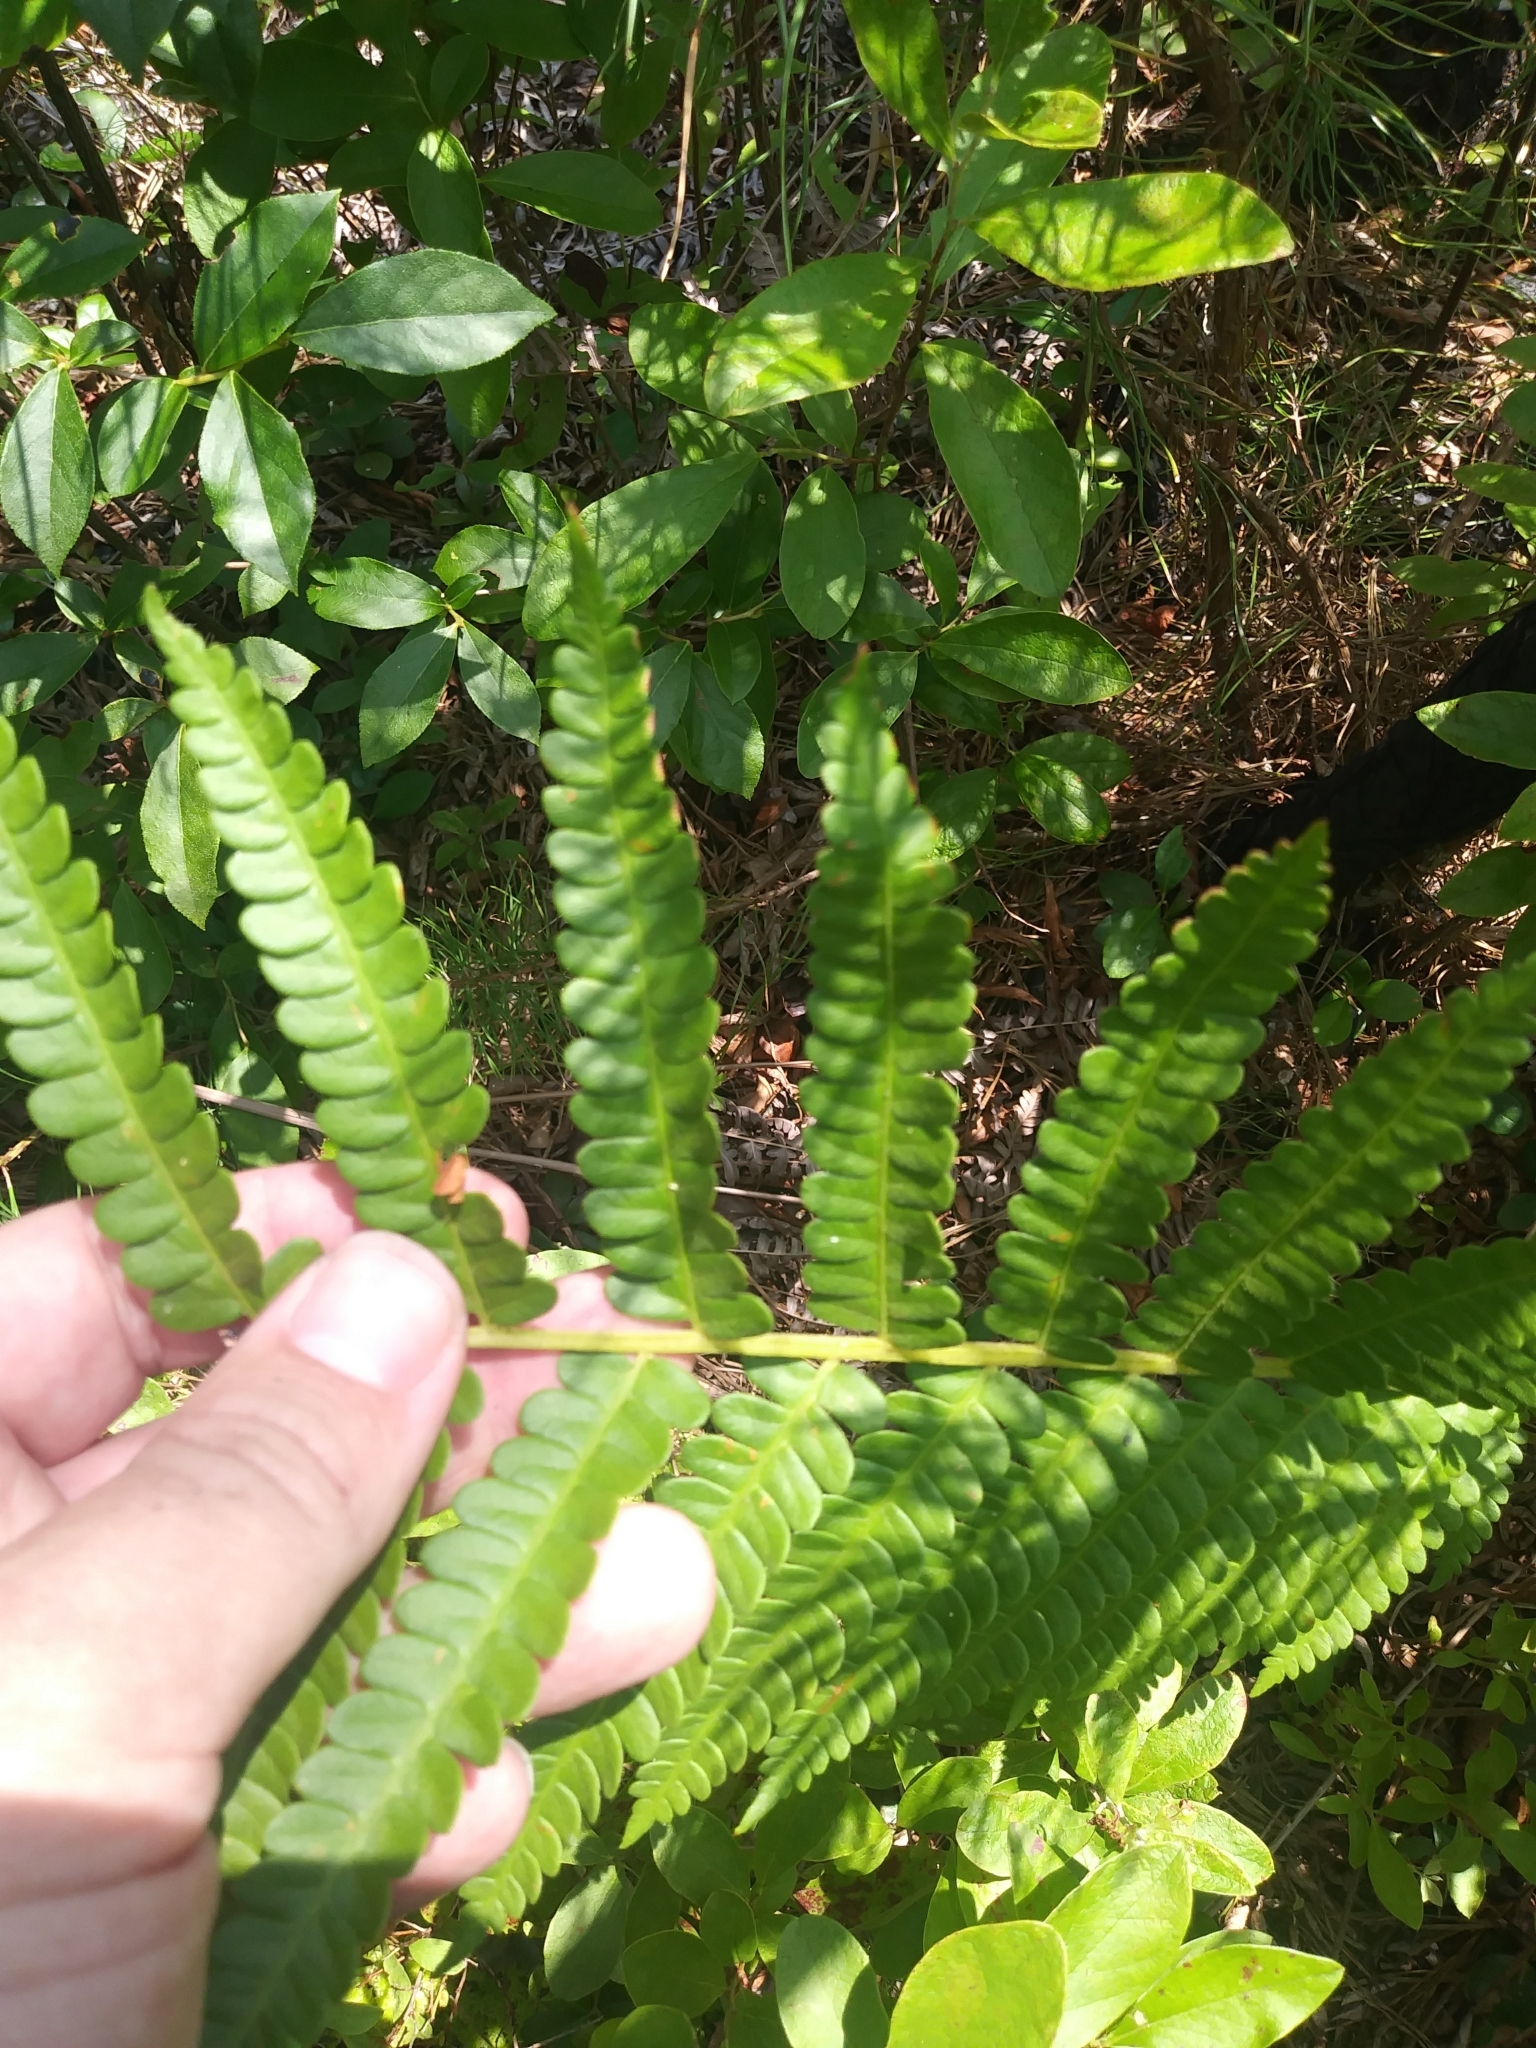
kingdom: Plantae
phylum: Tracheophyta
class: Polypodiopsida
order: Osmundales
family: Osmundaceae
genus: Osmundastrum
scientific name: Osmundastrum cinnamomeum
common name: Cinnamon fern
